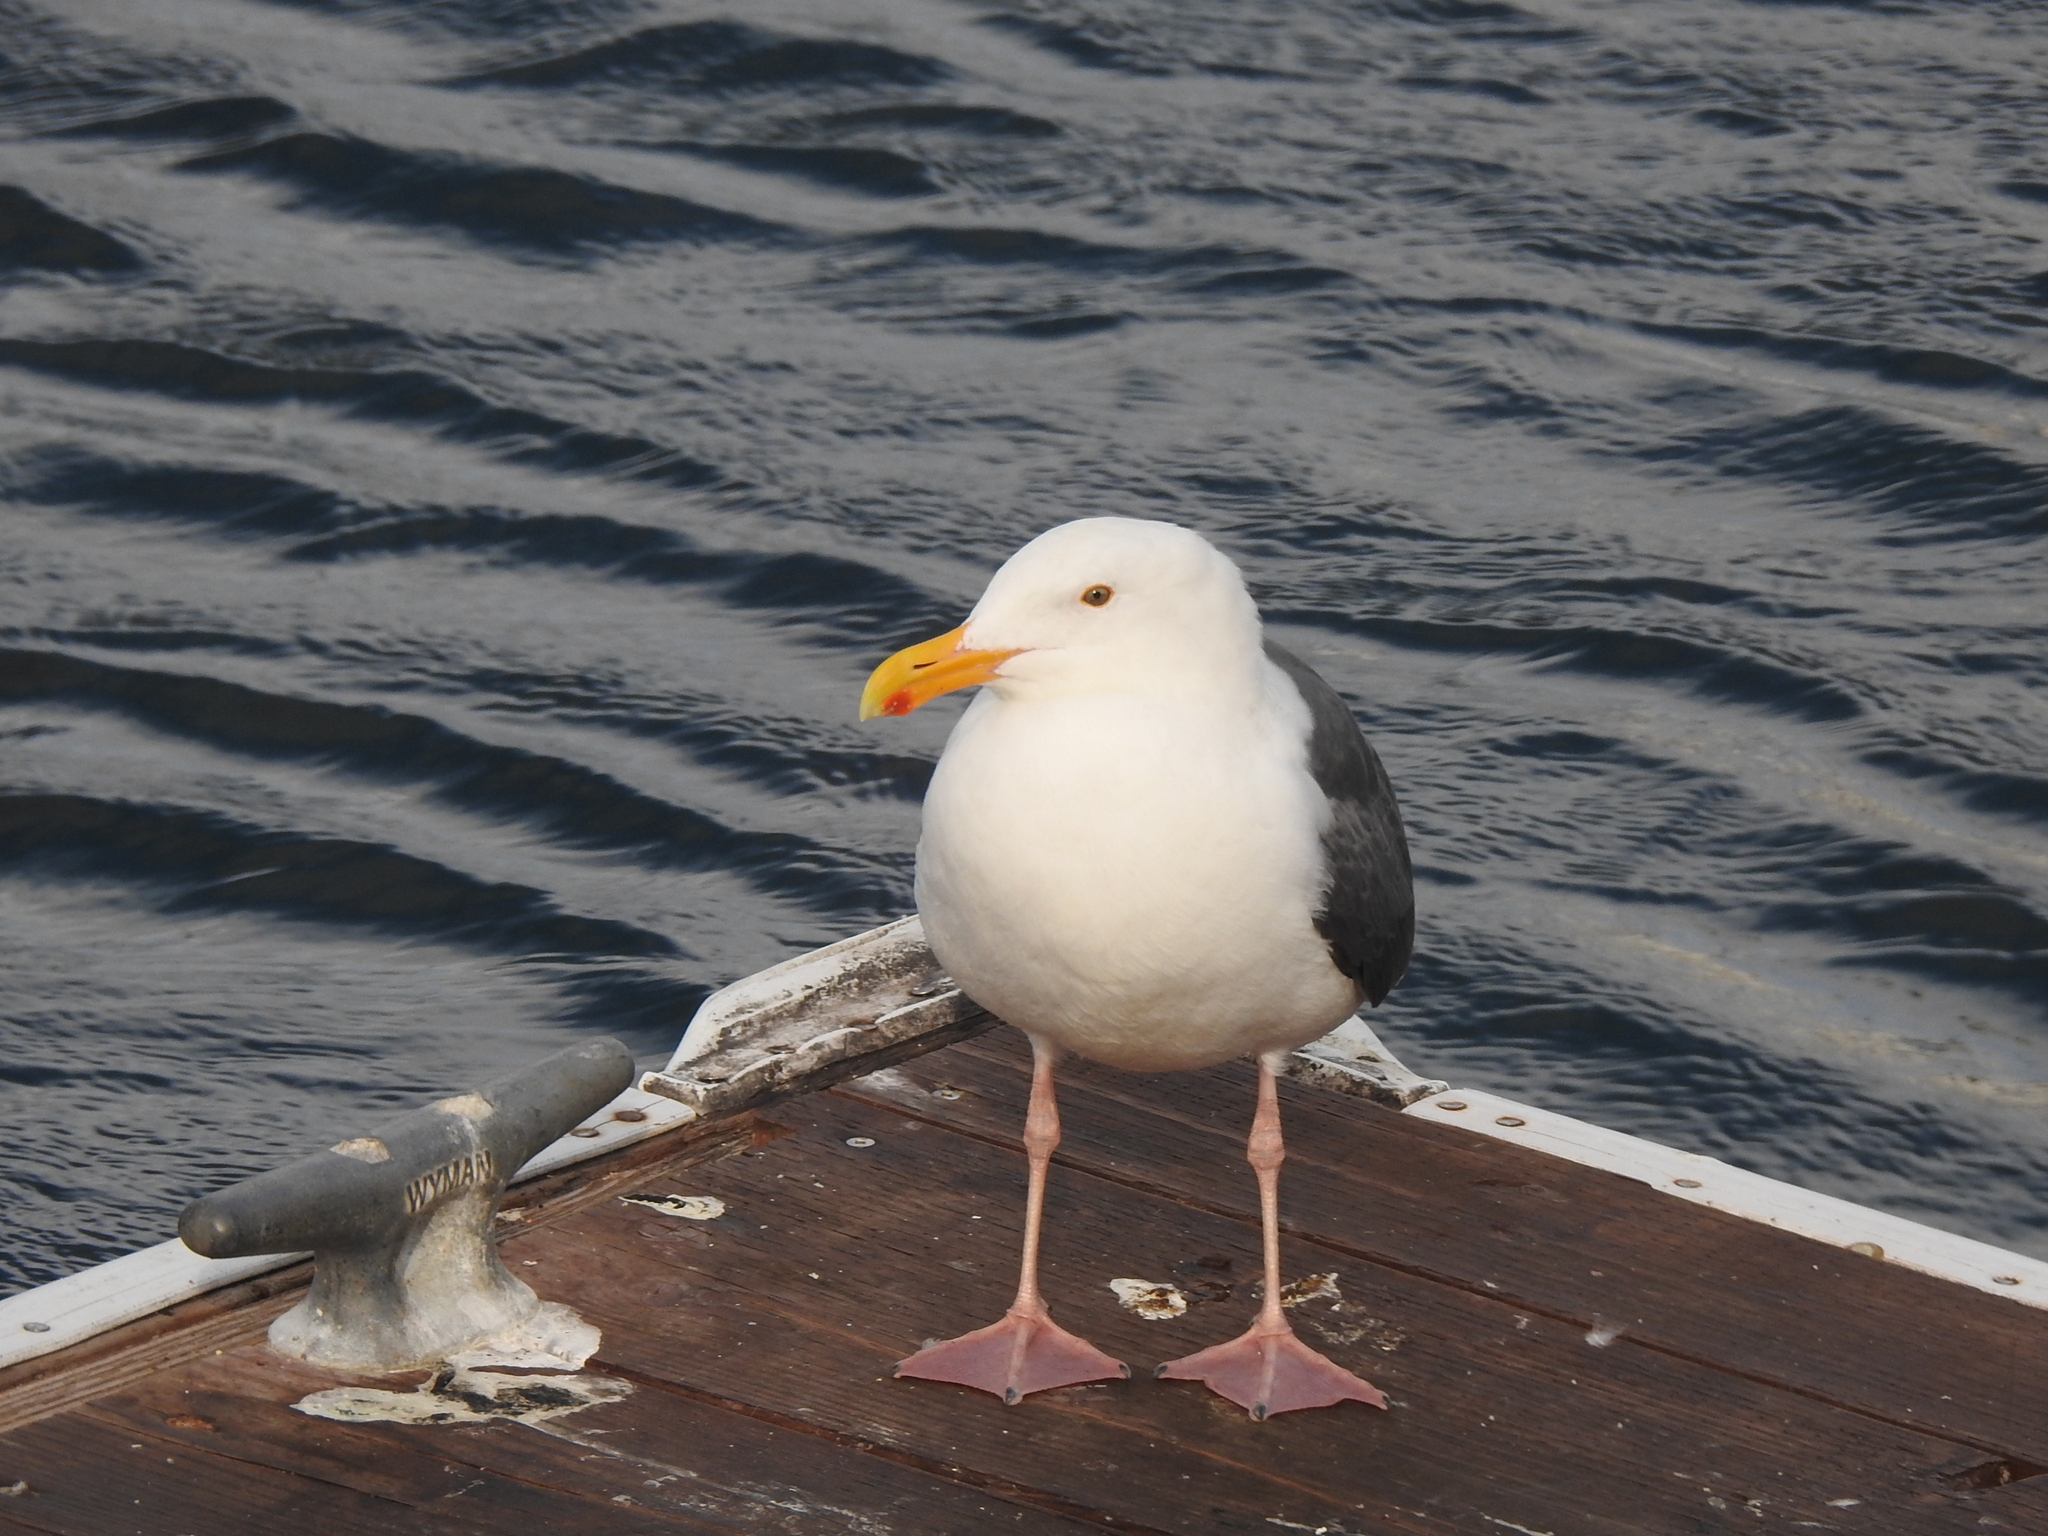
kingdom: Animalia
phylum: Chordata
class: Aves
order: Charadriiformes
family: Laridae
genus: Larus
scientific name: Larus occidentalis
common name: Western gull
